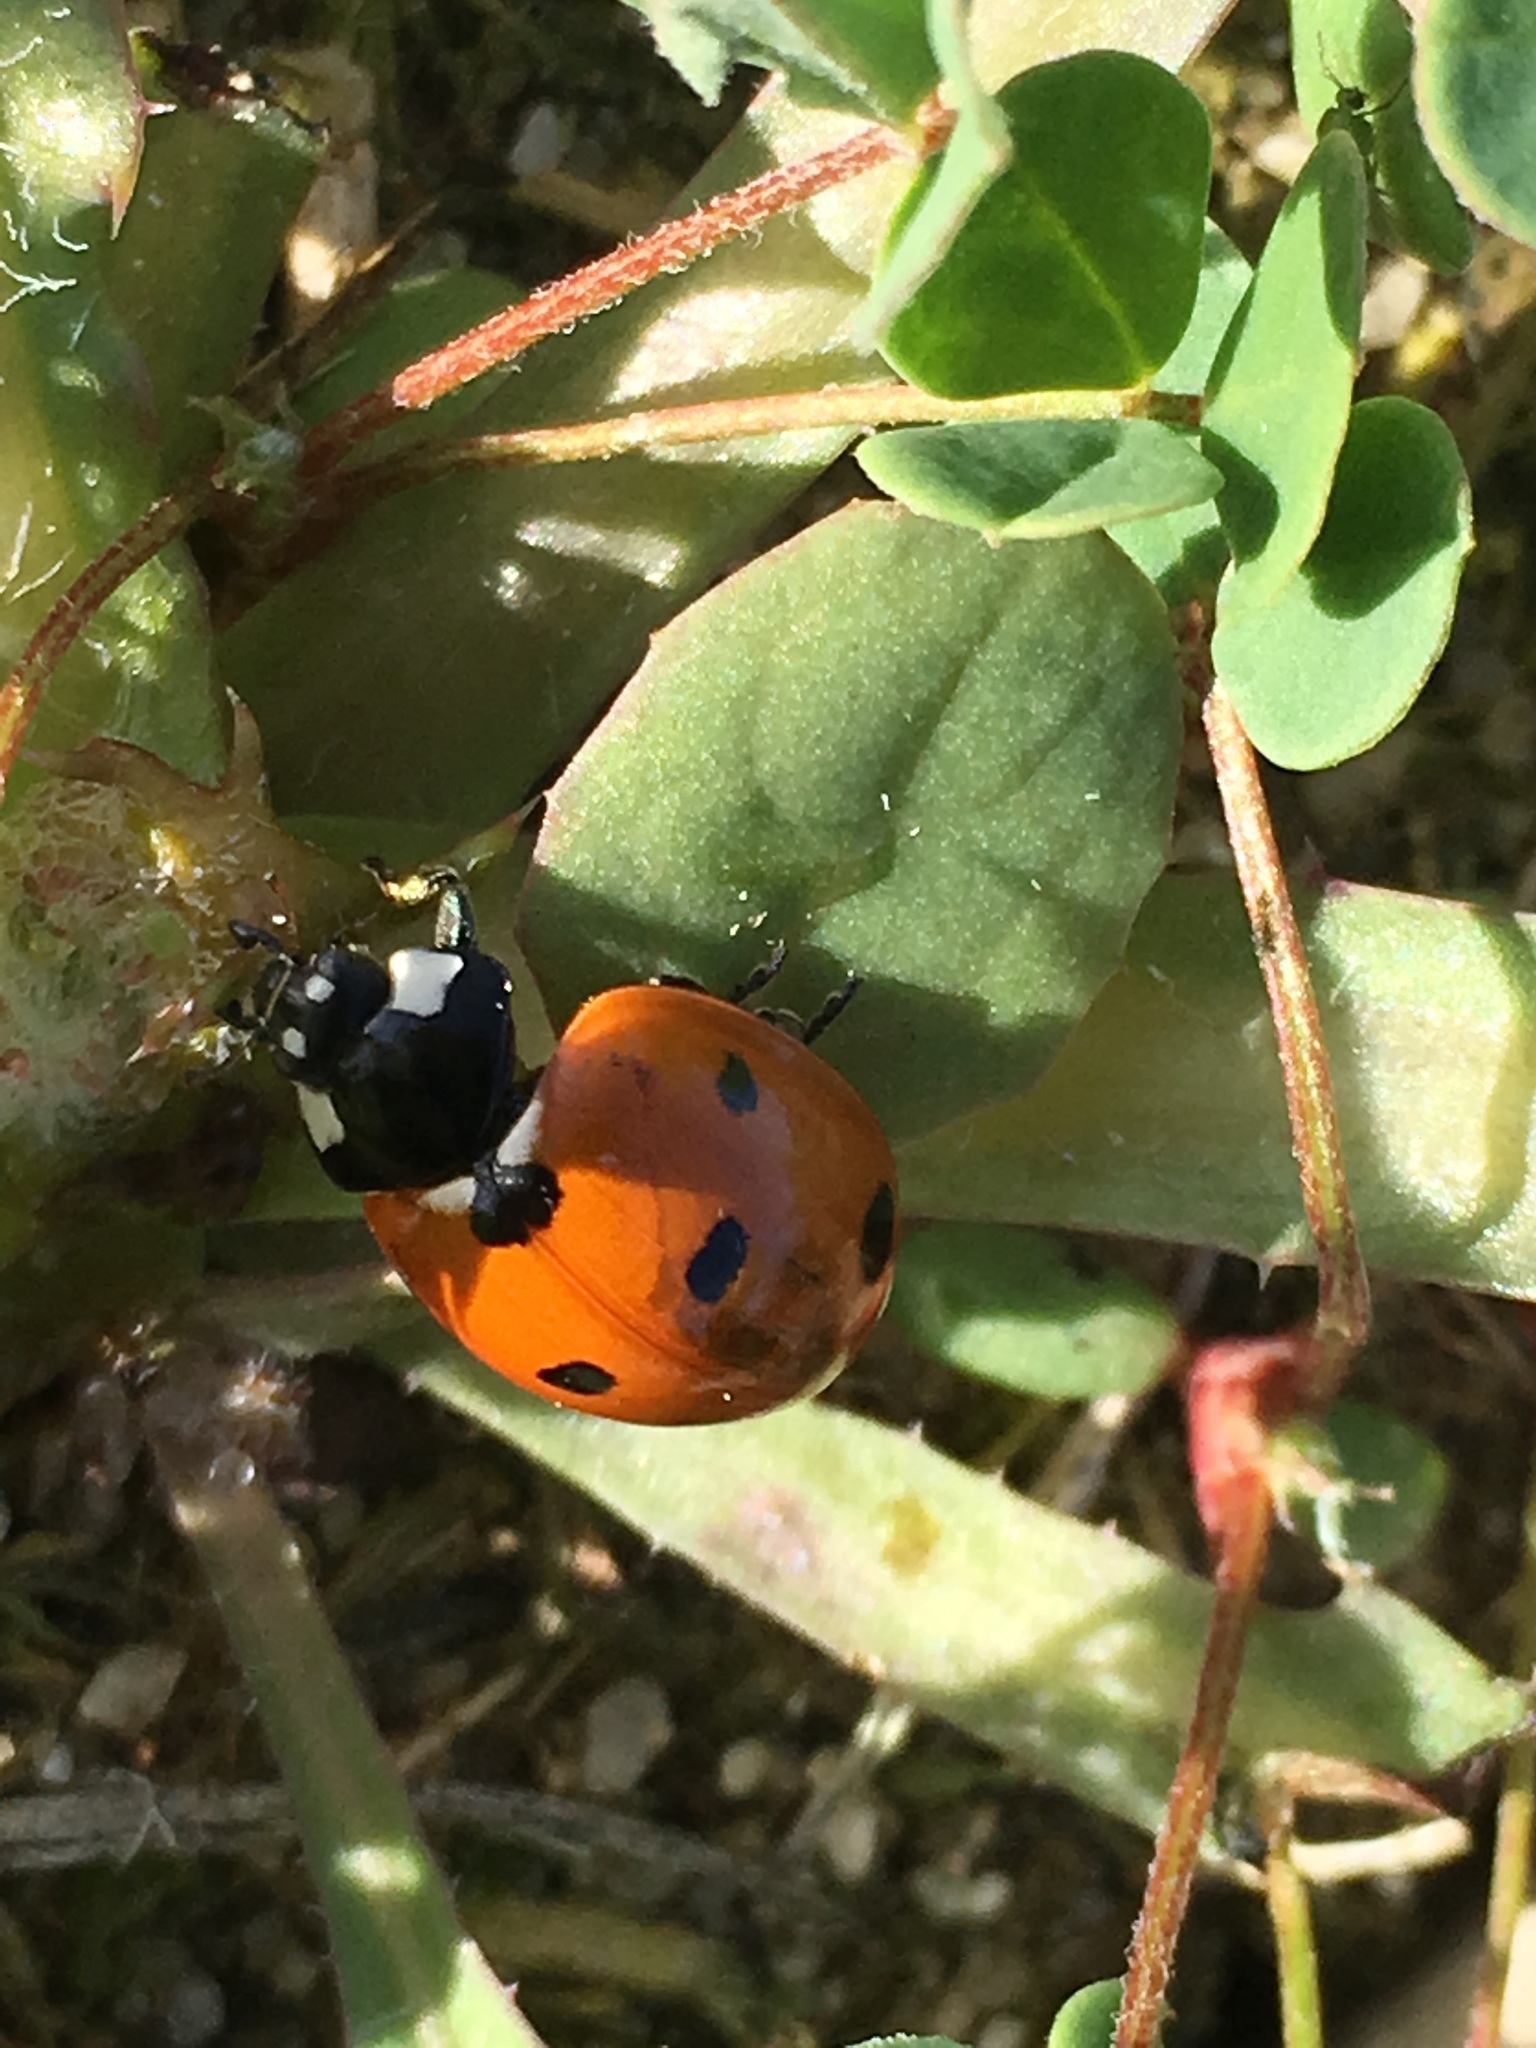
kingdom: Animalia
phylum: Arthropoda
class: Insecta
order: Coleoptera
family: Coccinellidae
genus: Coccinella
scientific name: Coccinella septempunctata
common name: Sevenspotted lady beetle
